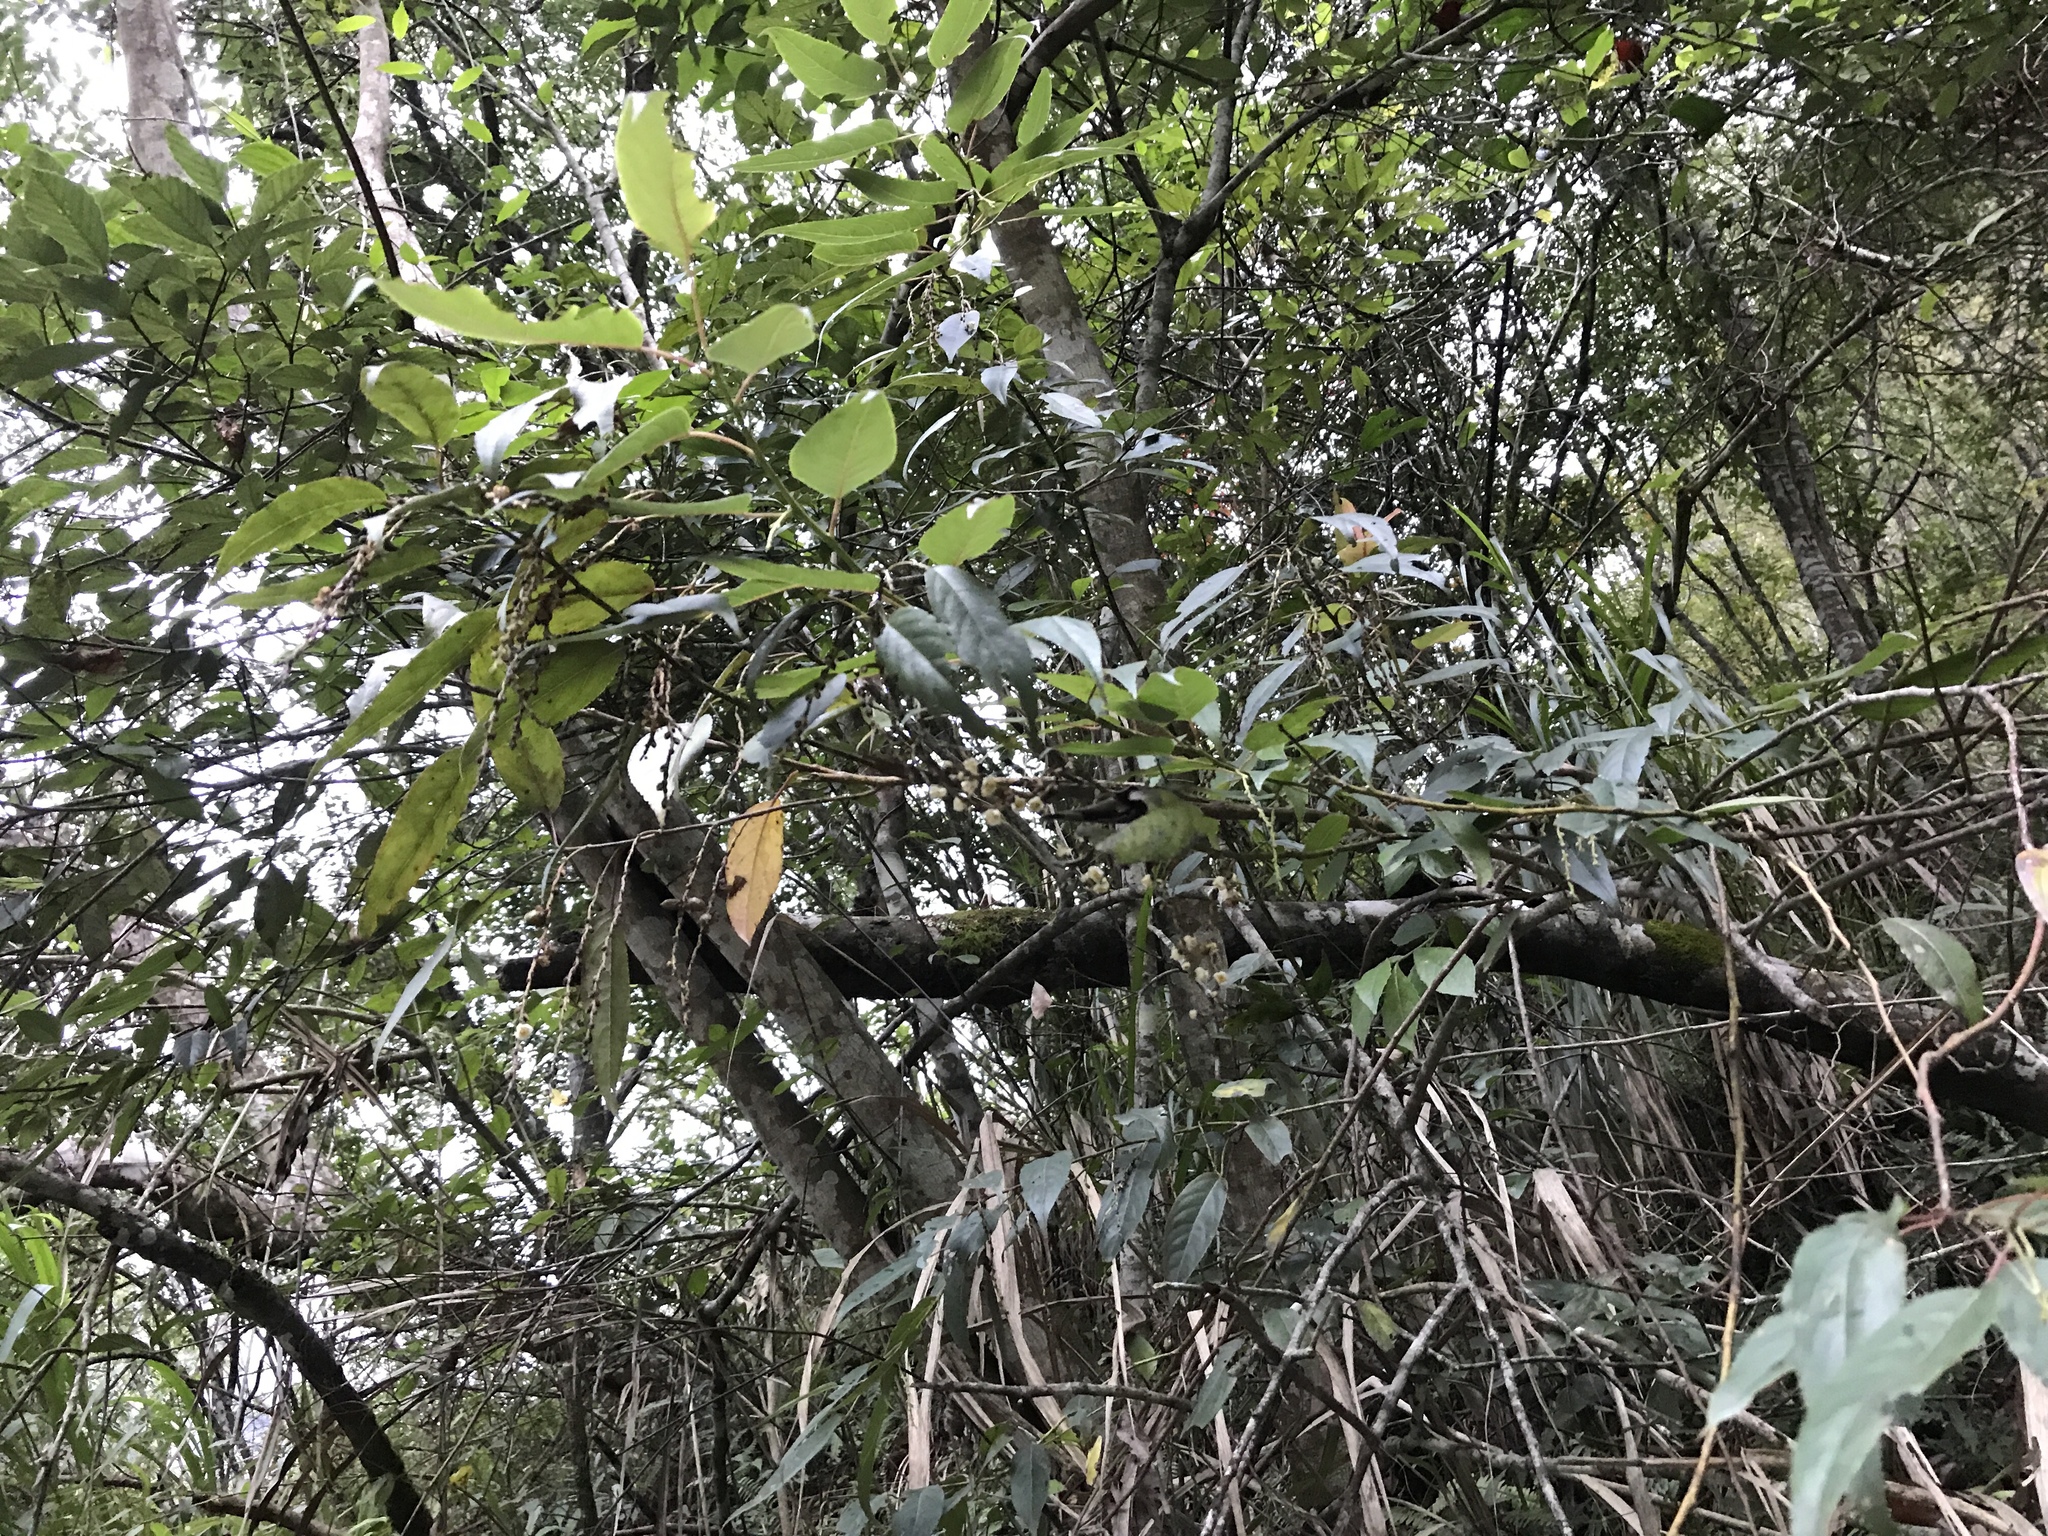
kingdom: Plantae
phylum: Tracheophyta
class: Magnoliopsida
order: Crossosomatales
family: Stachyuraceae
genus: Stachyurus
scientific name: Stachyurus himalaicus
